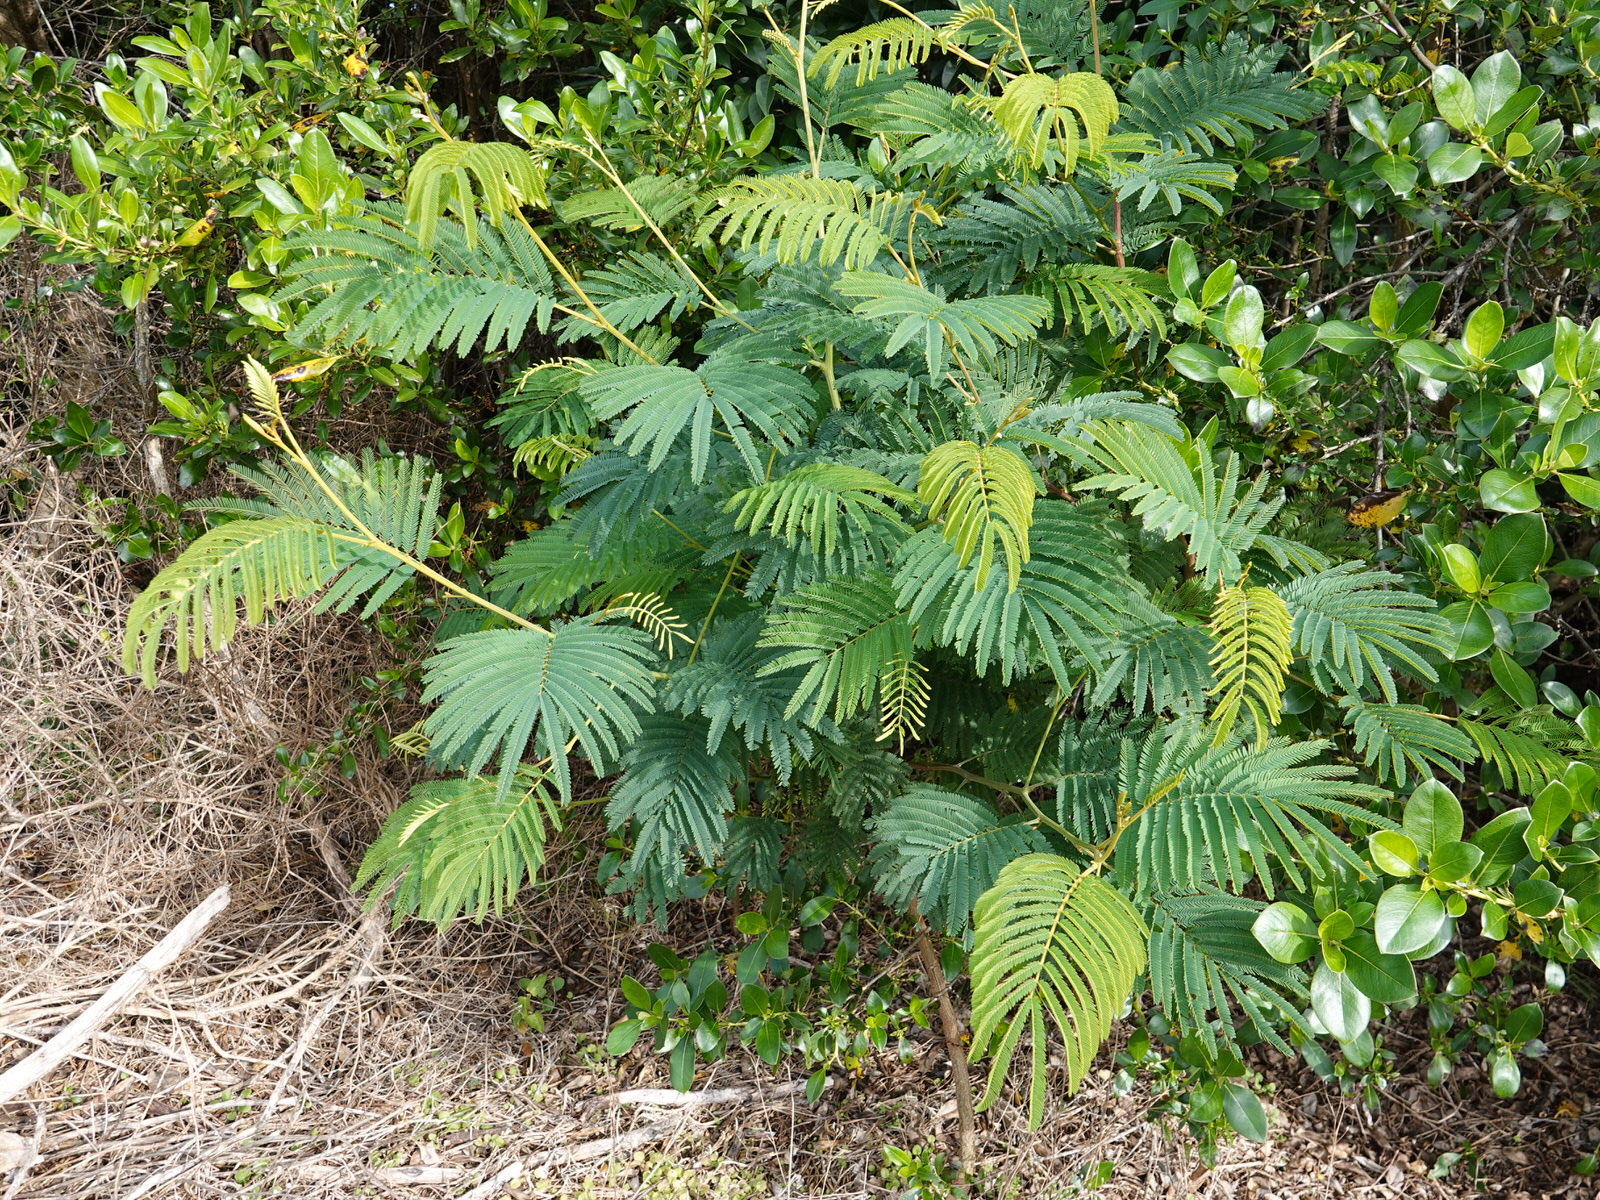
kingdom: Plantae
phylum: Tracheophyta
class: Magnoliopsida
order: Fabales
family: Fabaceae
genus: Paraserianthes
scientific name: Paraserianthes lophantha
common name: Plume albizia
